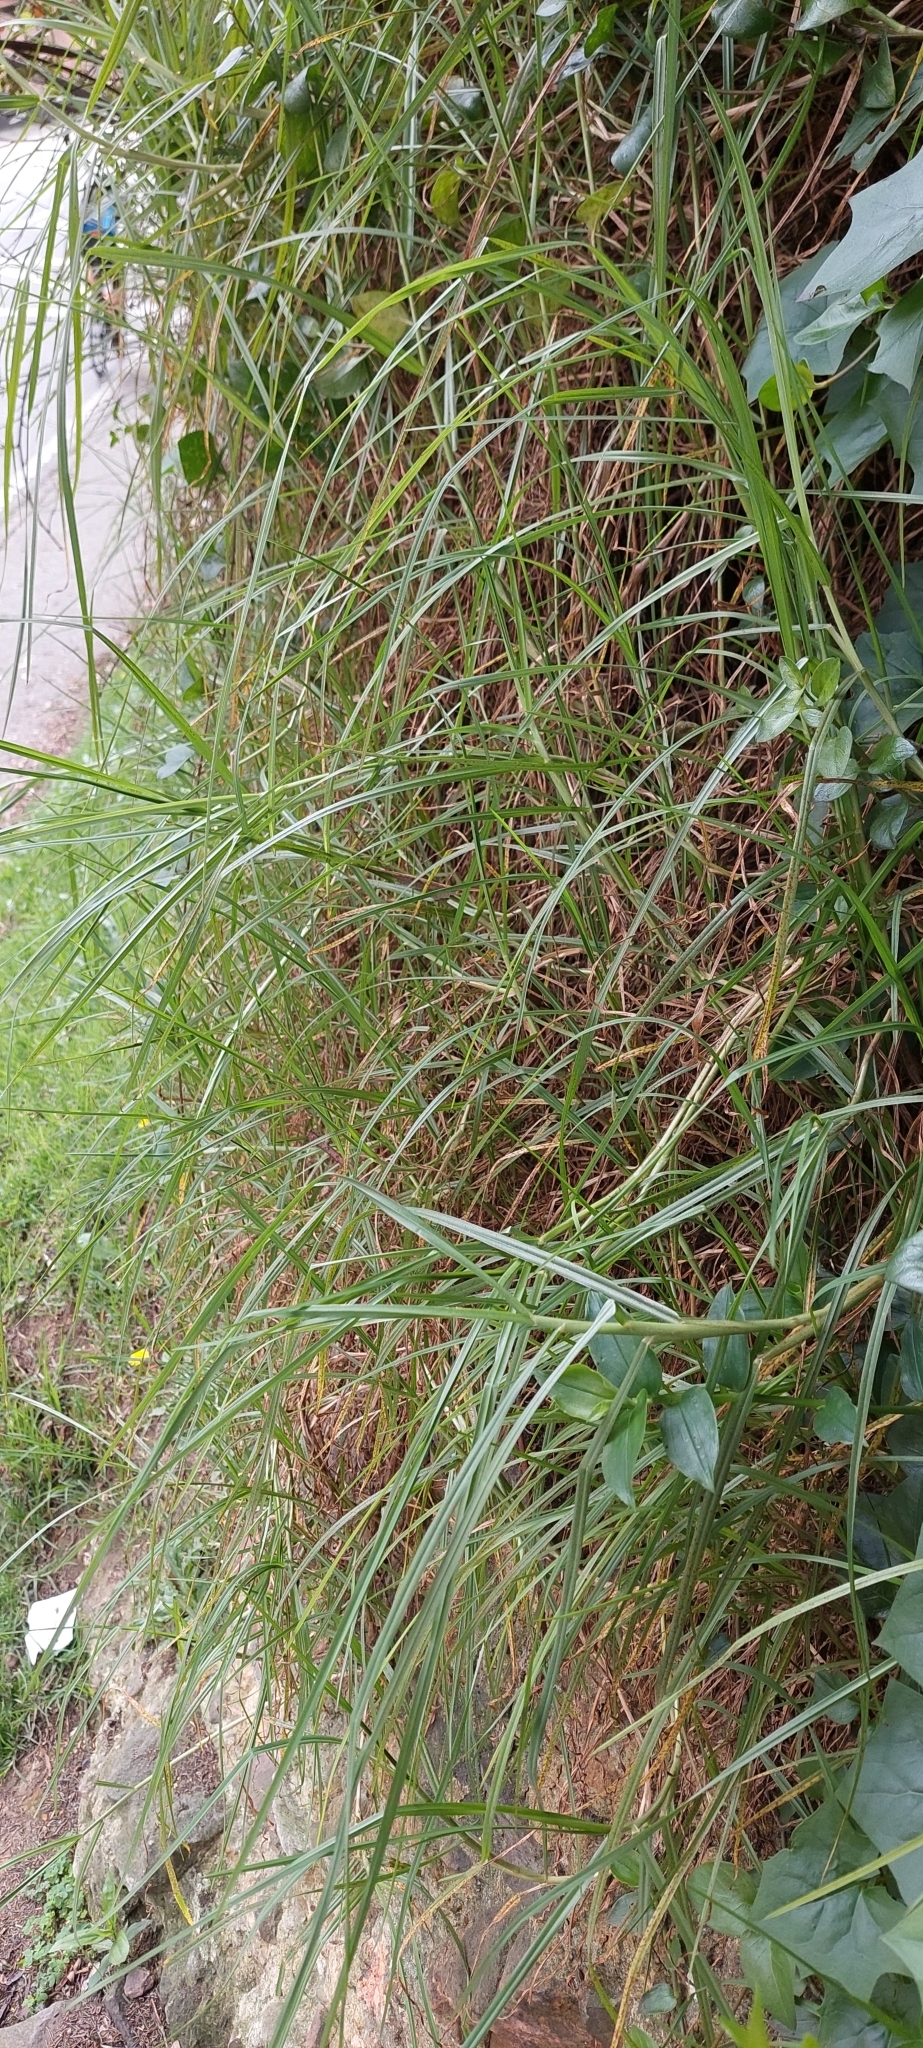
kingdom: Plantae
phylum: Tracheophyta
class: Liliopsida
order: Poales
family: Poaceae
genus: Cenchrus
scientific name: Cenchrus clandestinus
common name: Kikuyugrass
